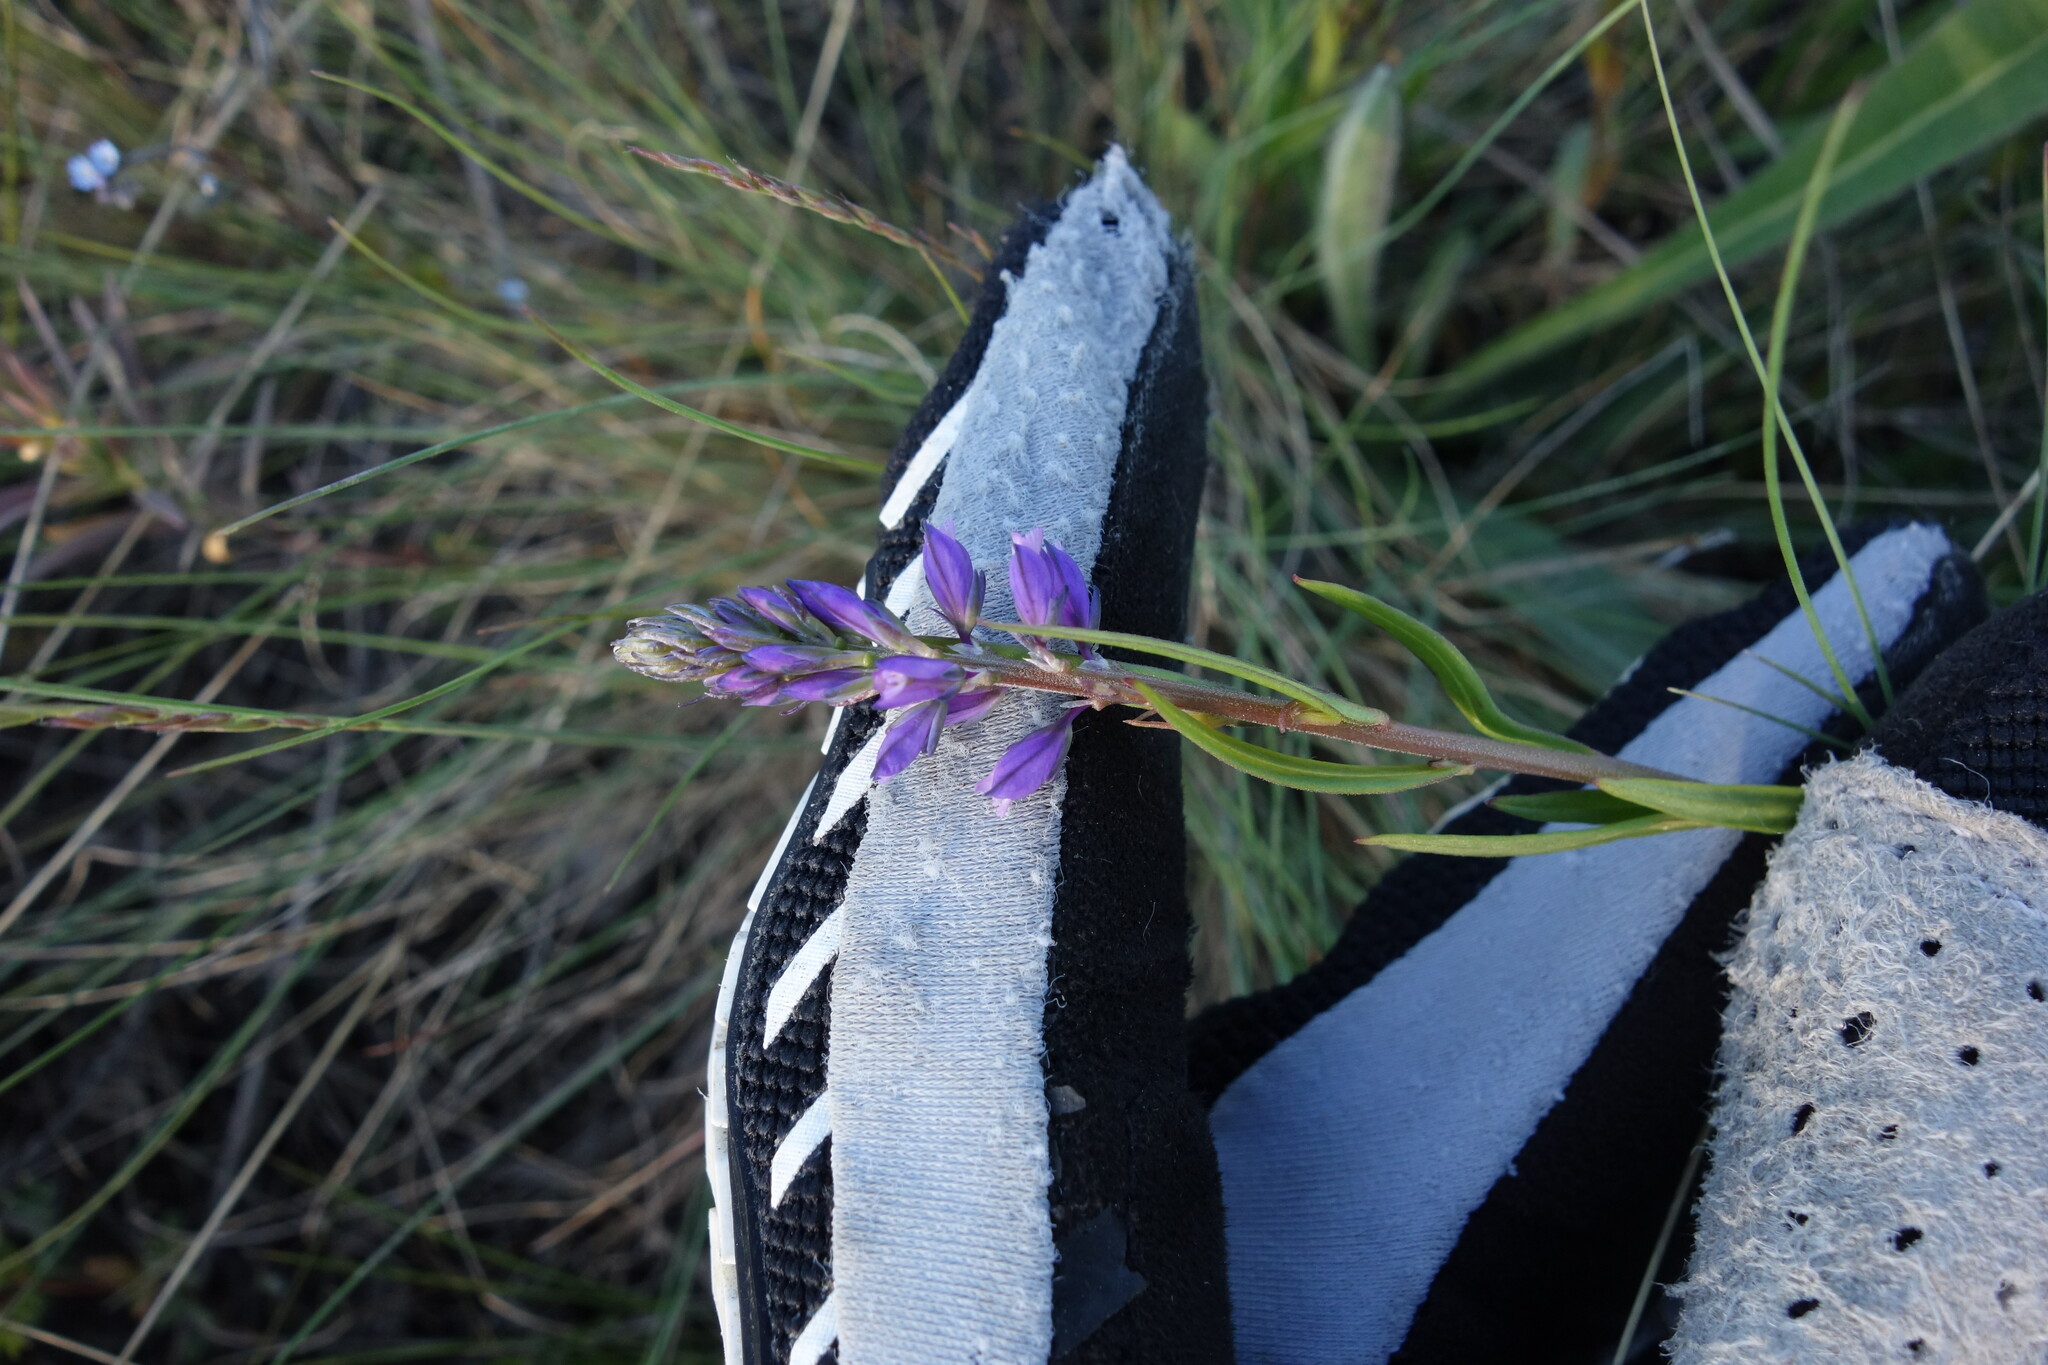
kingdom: Plantae
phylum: Tracheophyta
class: Magnoliopsida
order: Fabales
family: Polygalaceae
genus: Polygala
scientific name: Polygala comosa
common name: Tufted milkwort
